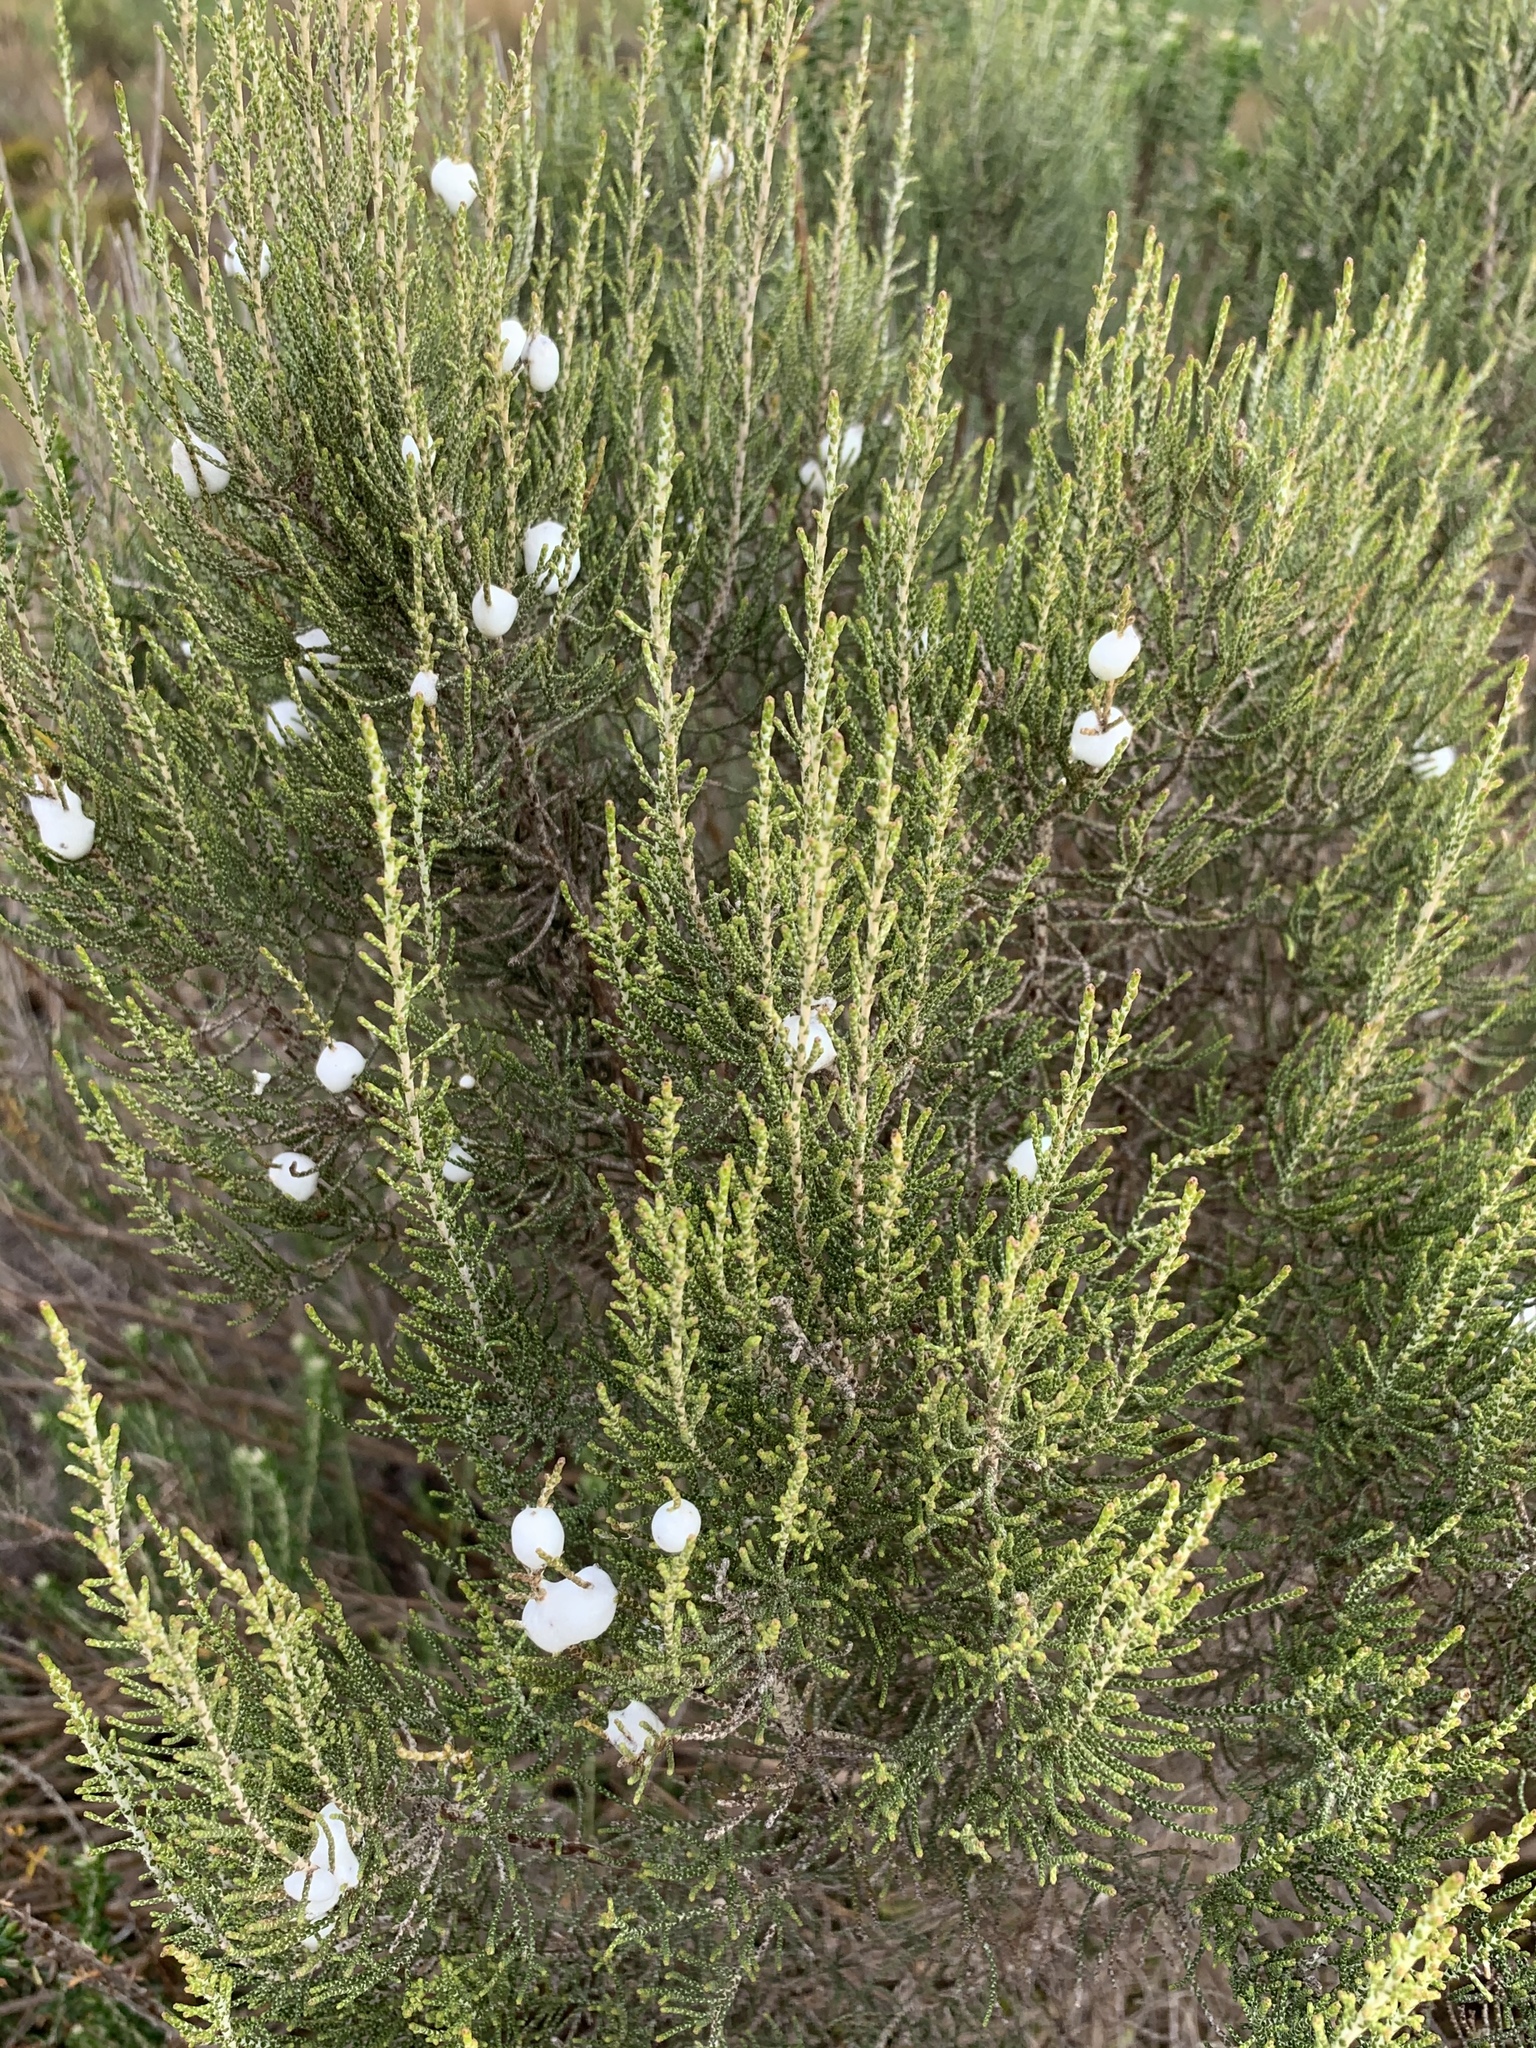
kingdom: Plantae
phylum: Tracheophyta
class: Magnoliopsida
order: Asterales
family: Asteraceae
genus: Dicerothamnus
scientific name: Dicerothamnus rhinocerotis
